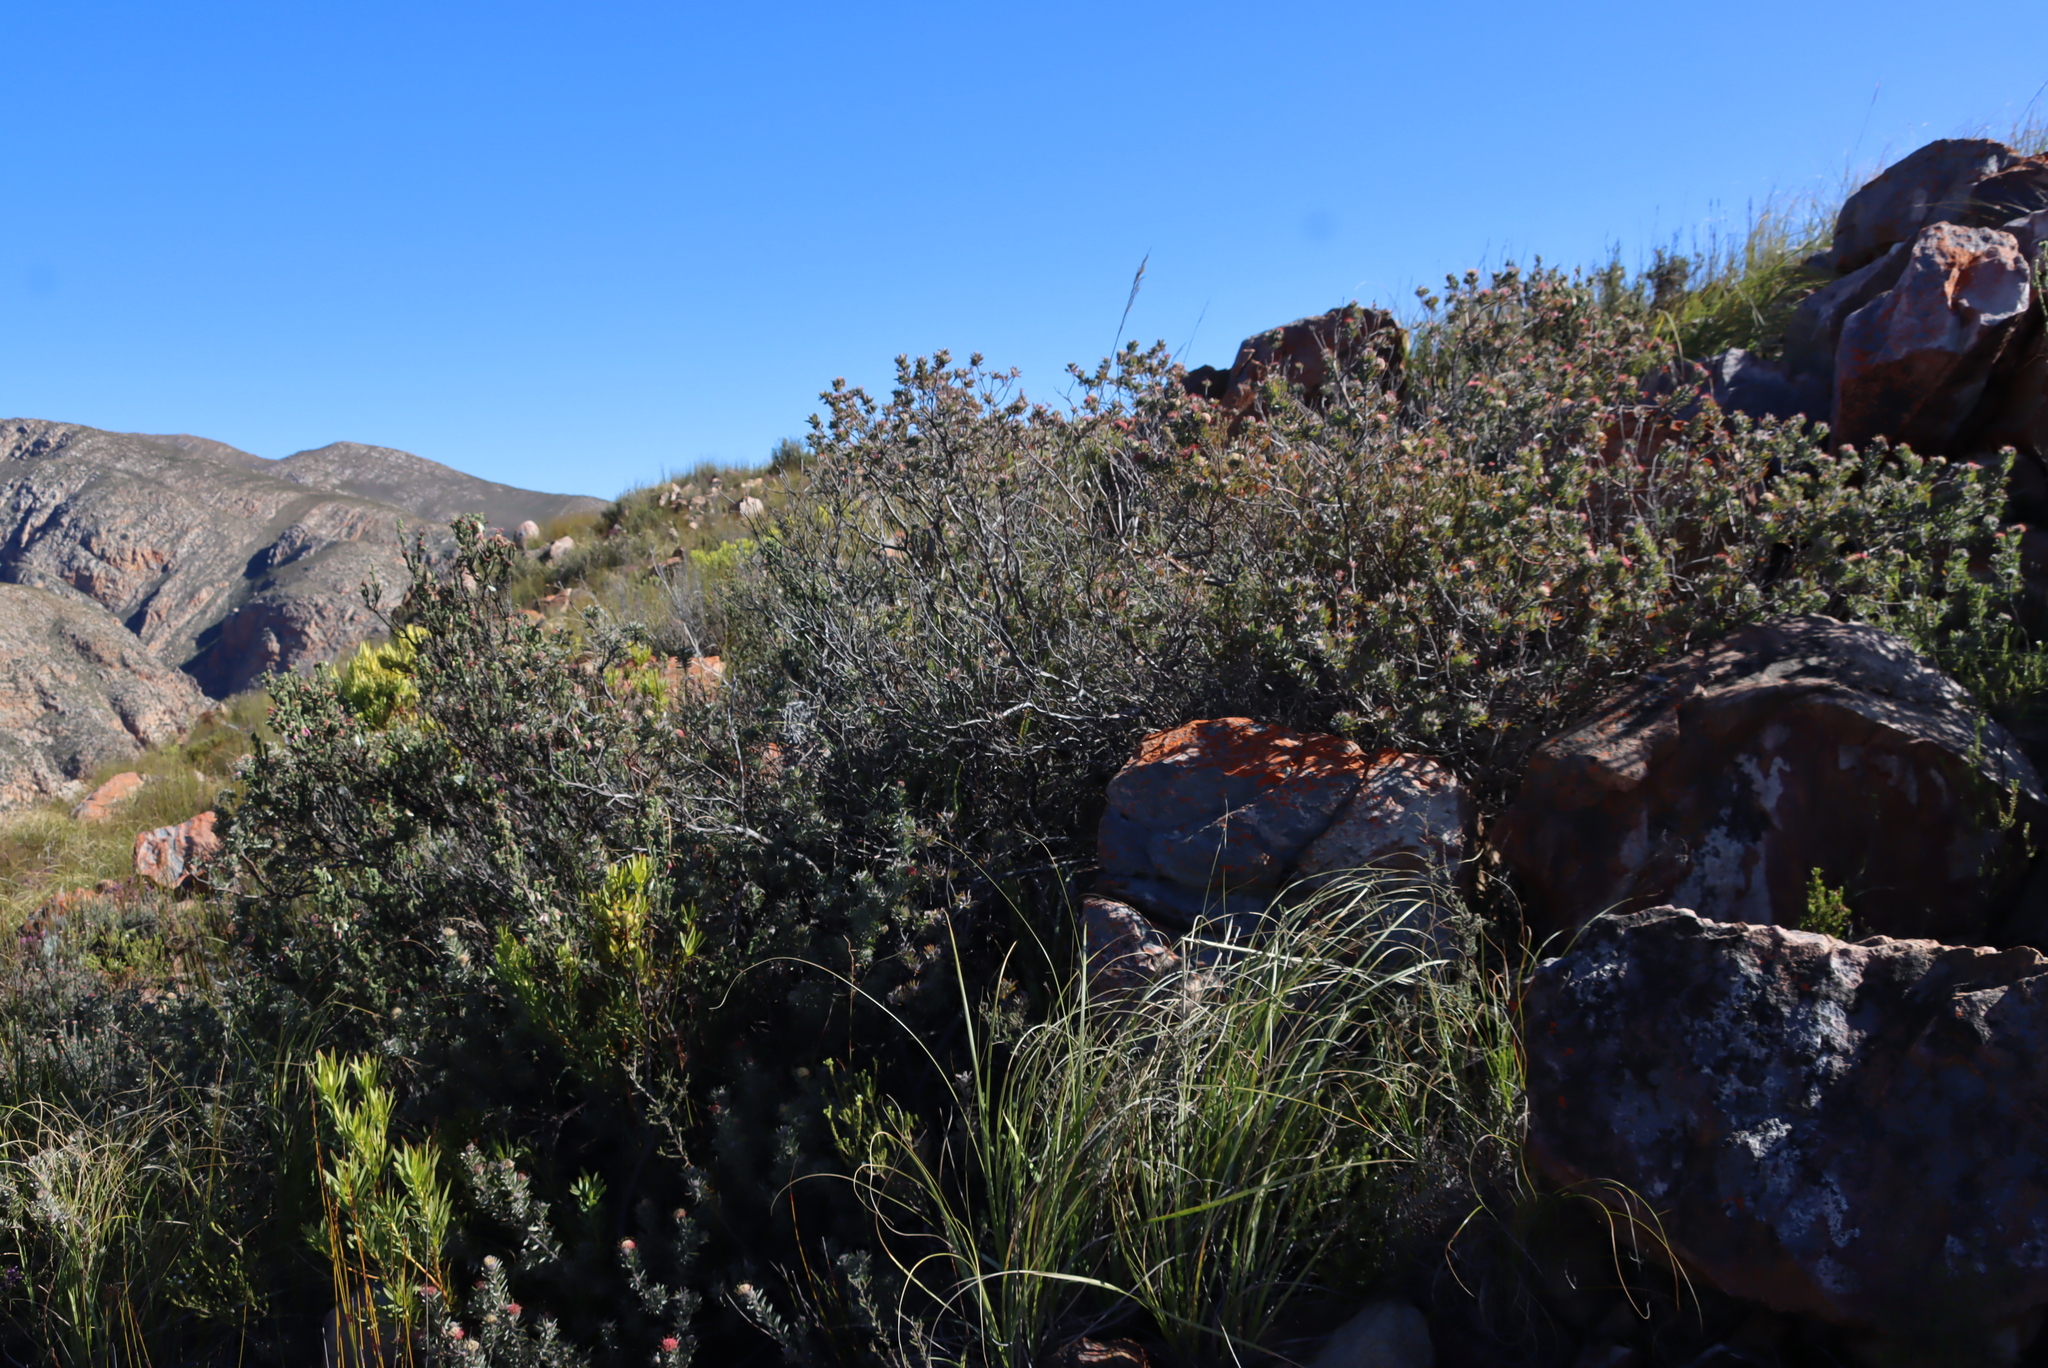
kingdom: Plantae
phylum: Tracheophyta
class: Magnoliopsida
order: Proteales
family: Proteaceae
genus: Leucospermum
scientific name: Leucospermum wittebergense
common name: Swartberg pincushion
